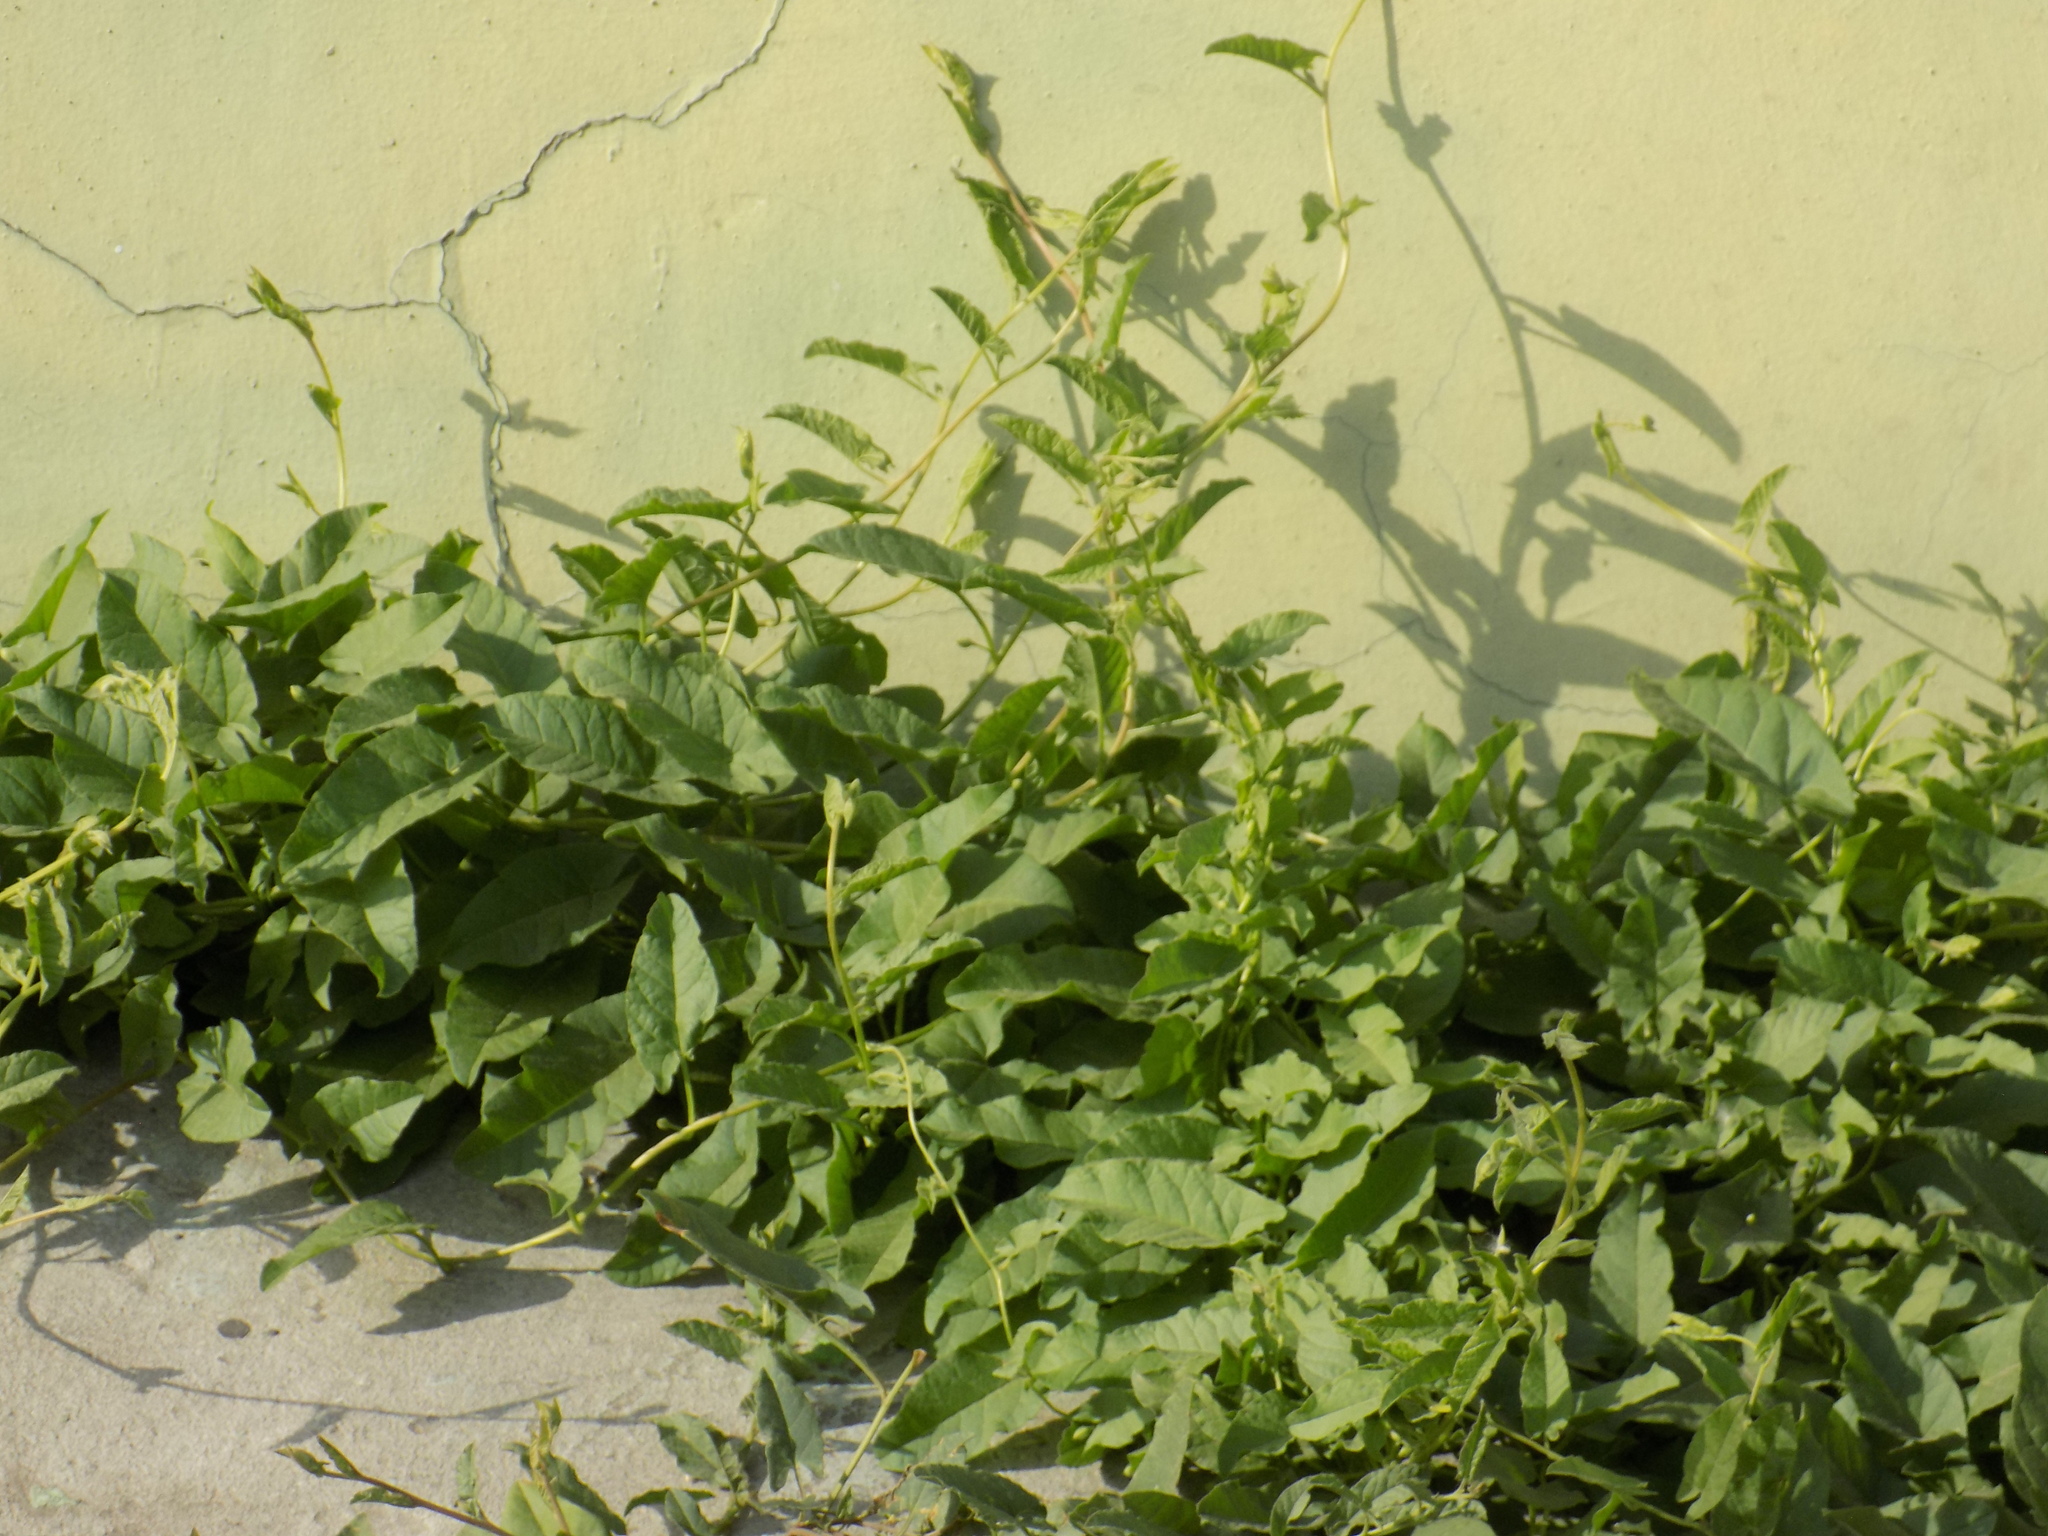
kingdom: Plantae
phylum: Tracheophyta
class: Magnoliopsida
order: Solanales
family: Convolvulaceae
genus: Convolvulus
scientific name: Convolvulus arvensis
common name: Field bindweed
